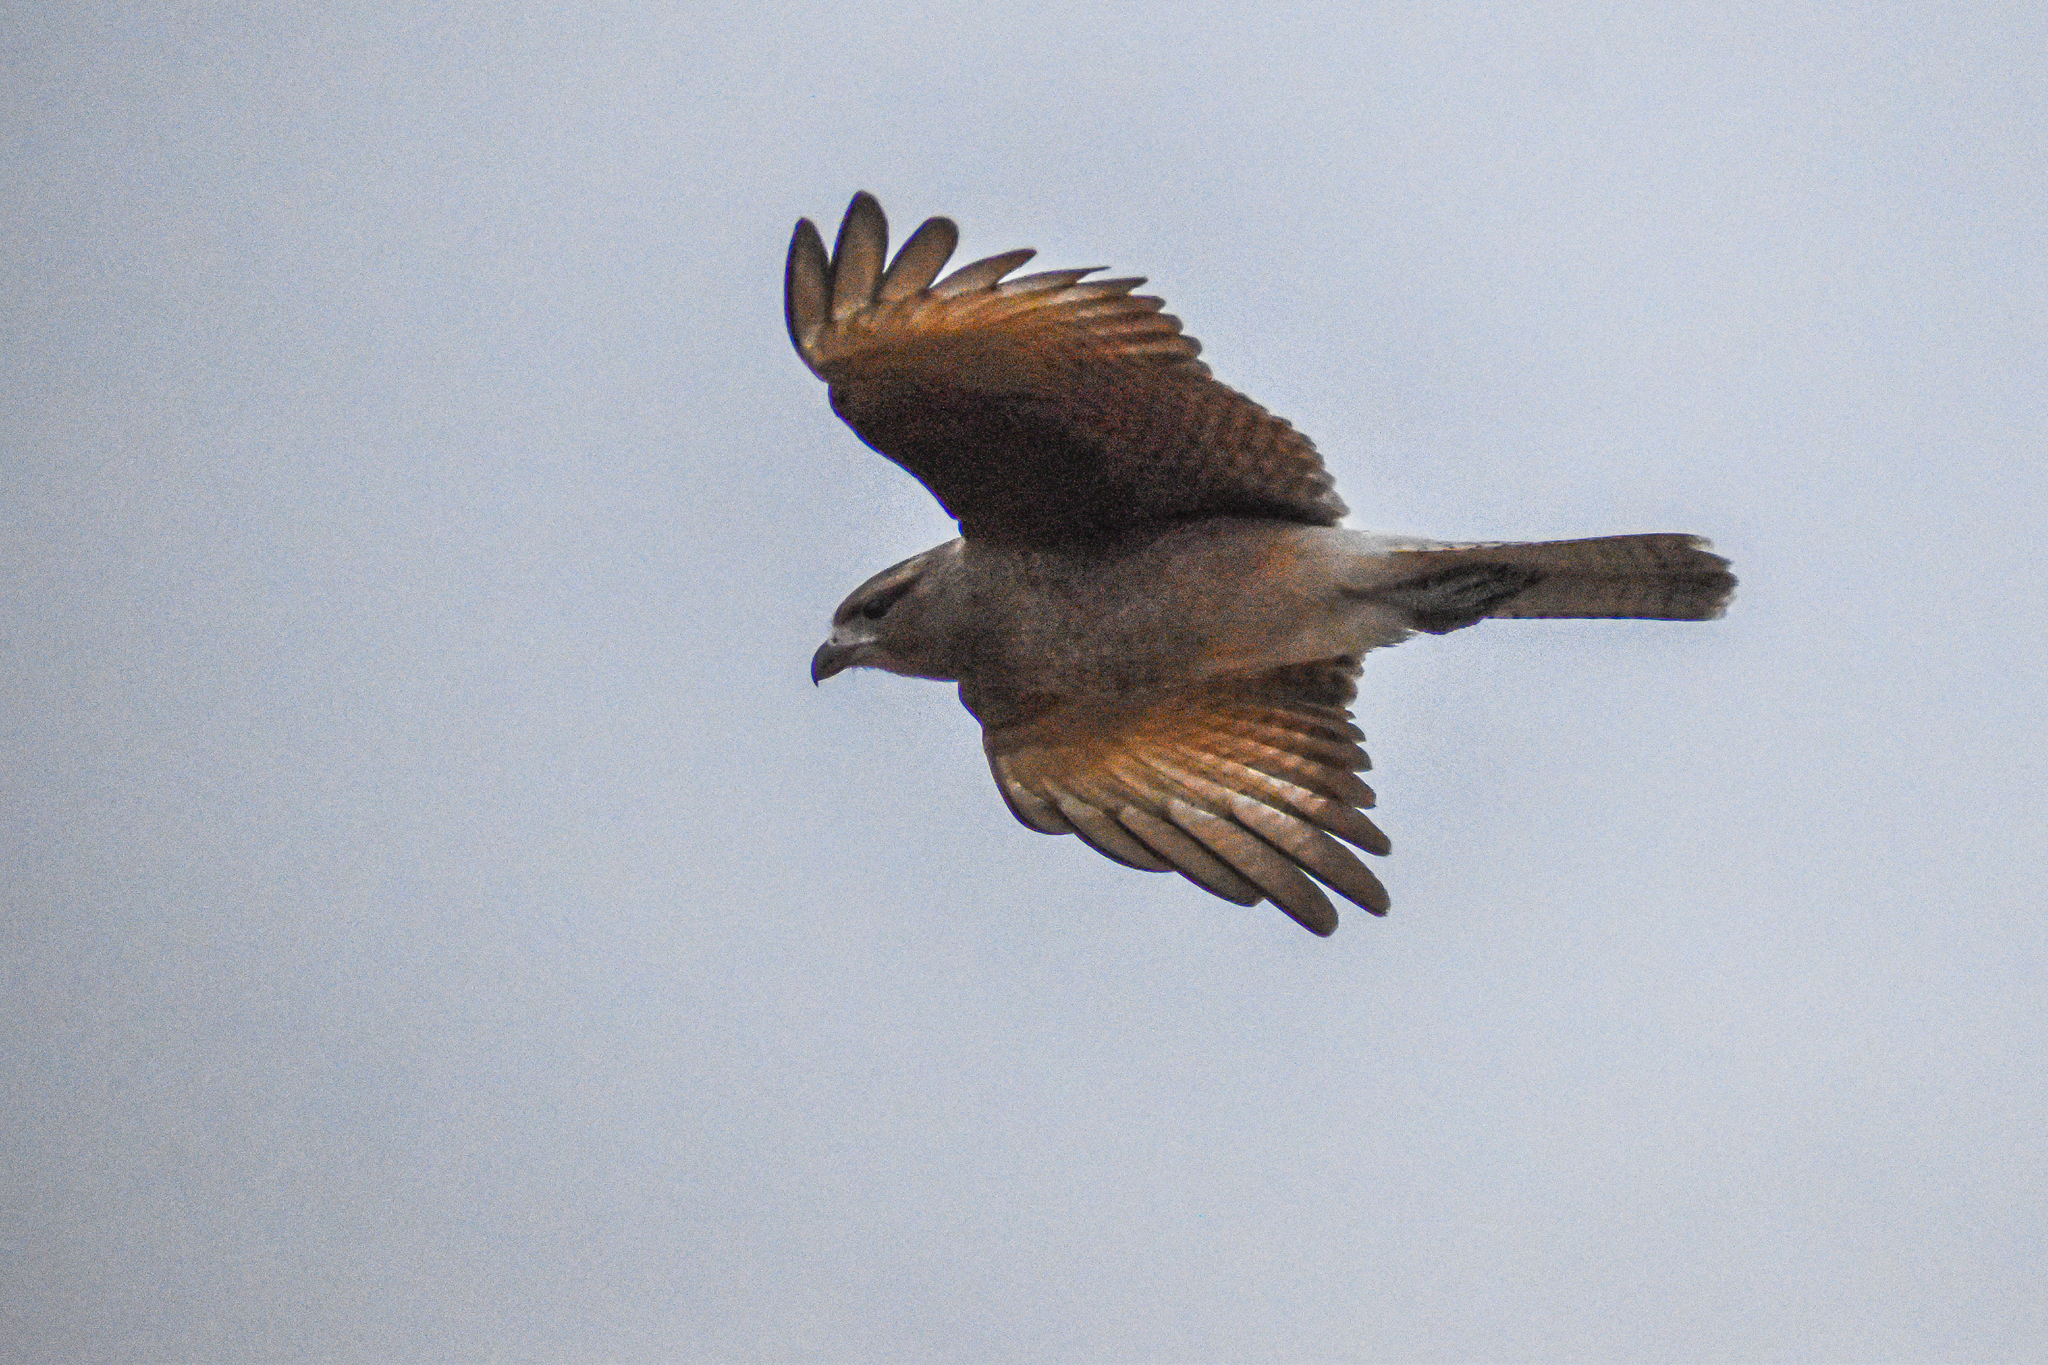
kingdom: Animalia
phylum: Chordata
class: Aves
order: Falconiformes
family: Falconidae
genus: Daptrius
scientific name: Daptrius
